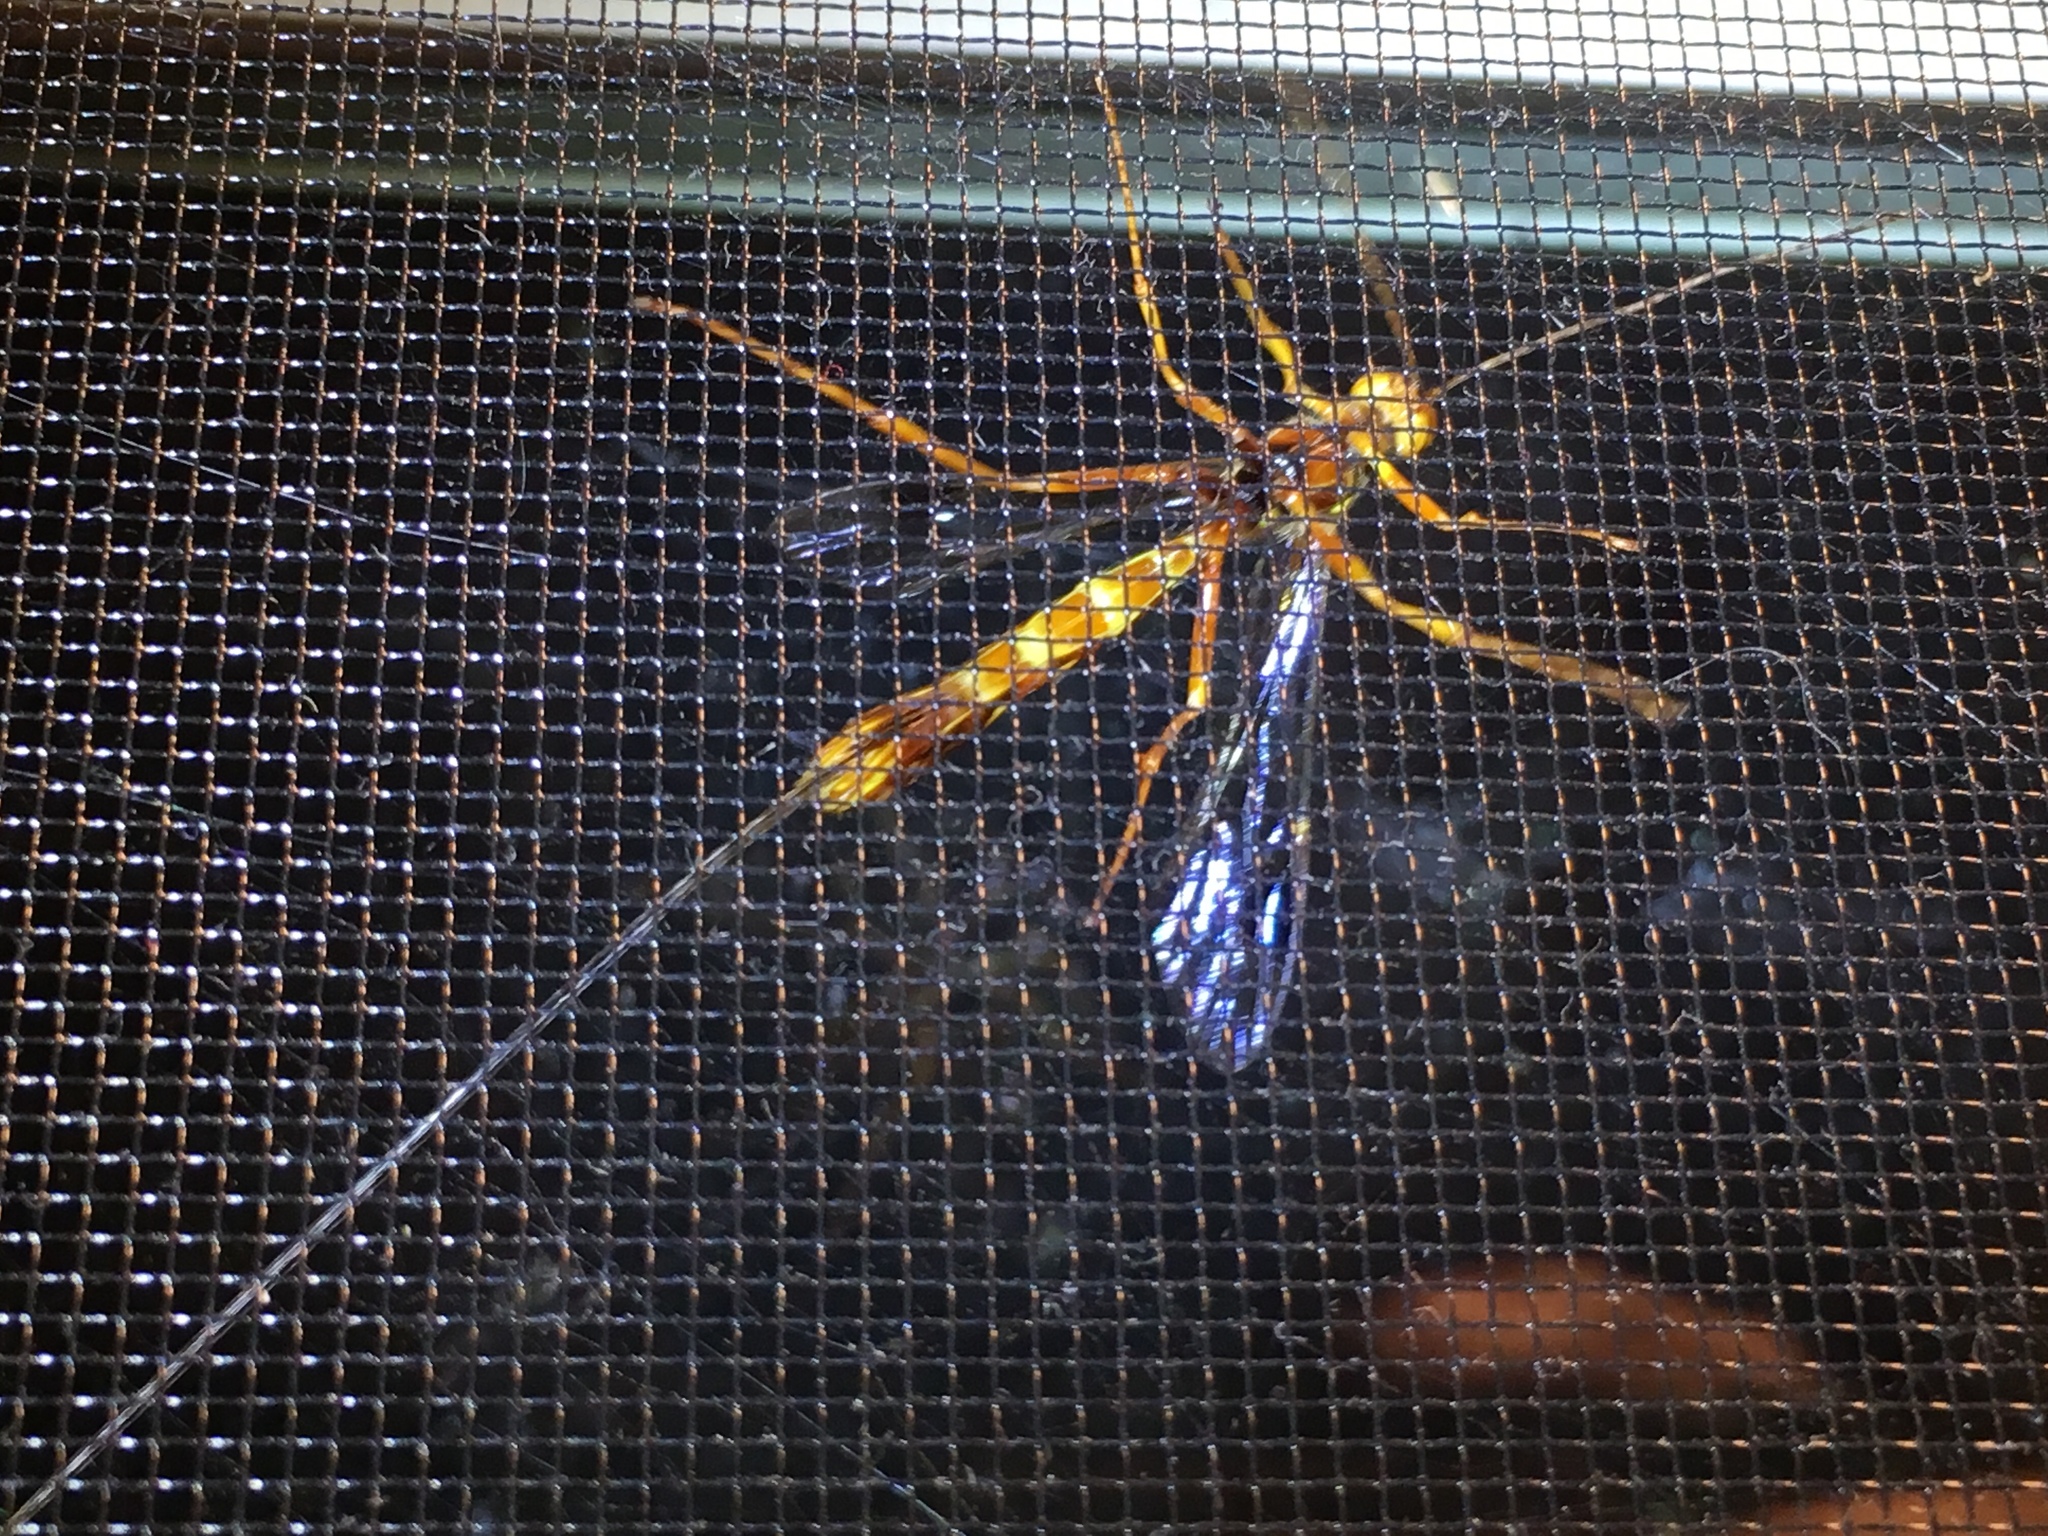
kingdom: Animalia
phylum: Arthropoda
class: Insecta
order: Hymenoptera
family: Ichneumonidae
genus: Megarhyssa
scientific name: Megarhyssa greenei
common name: Greene's giant ichneumonid wasp
